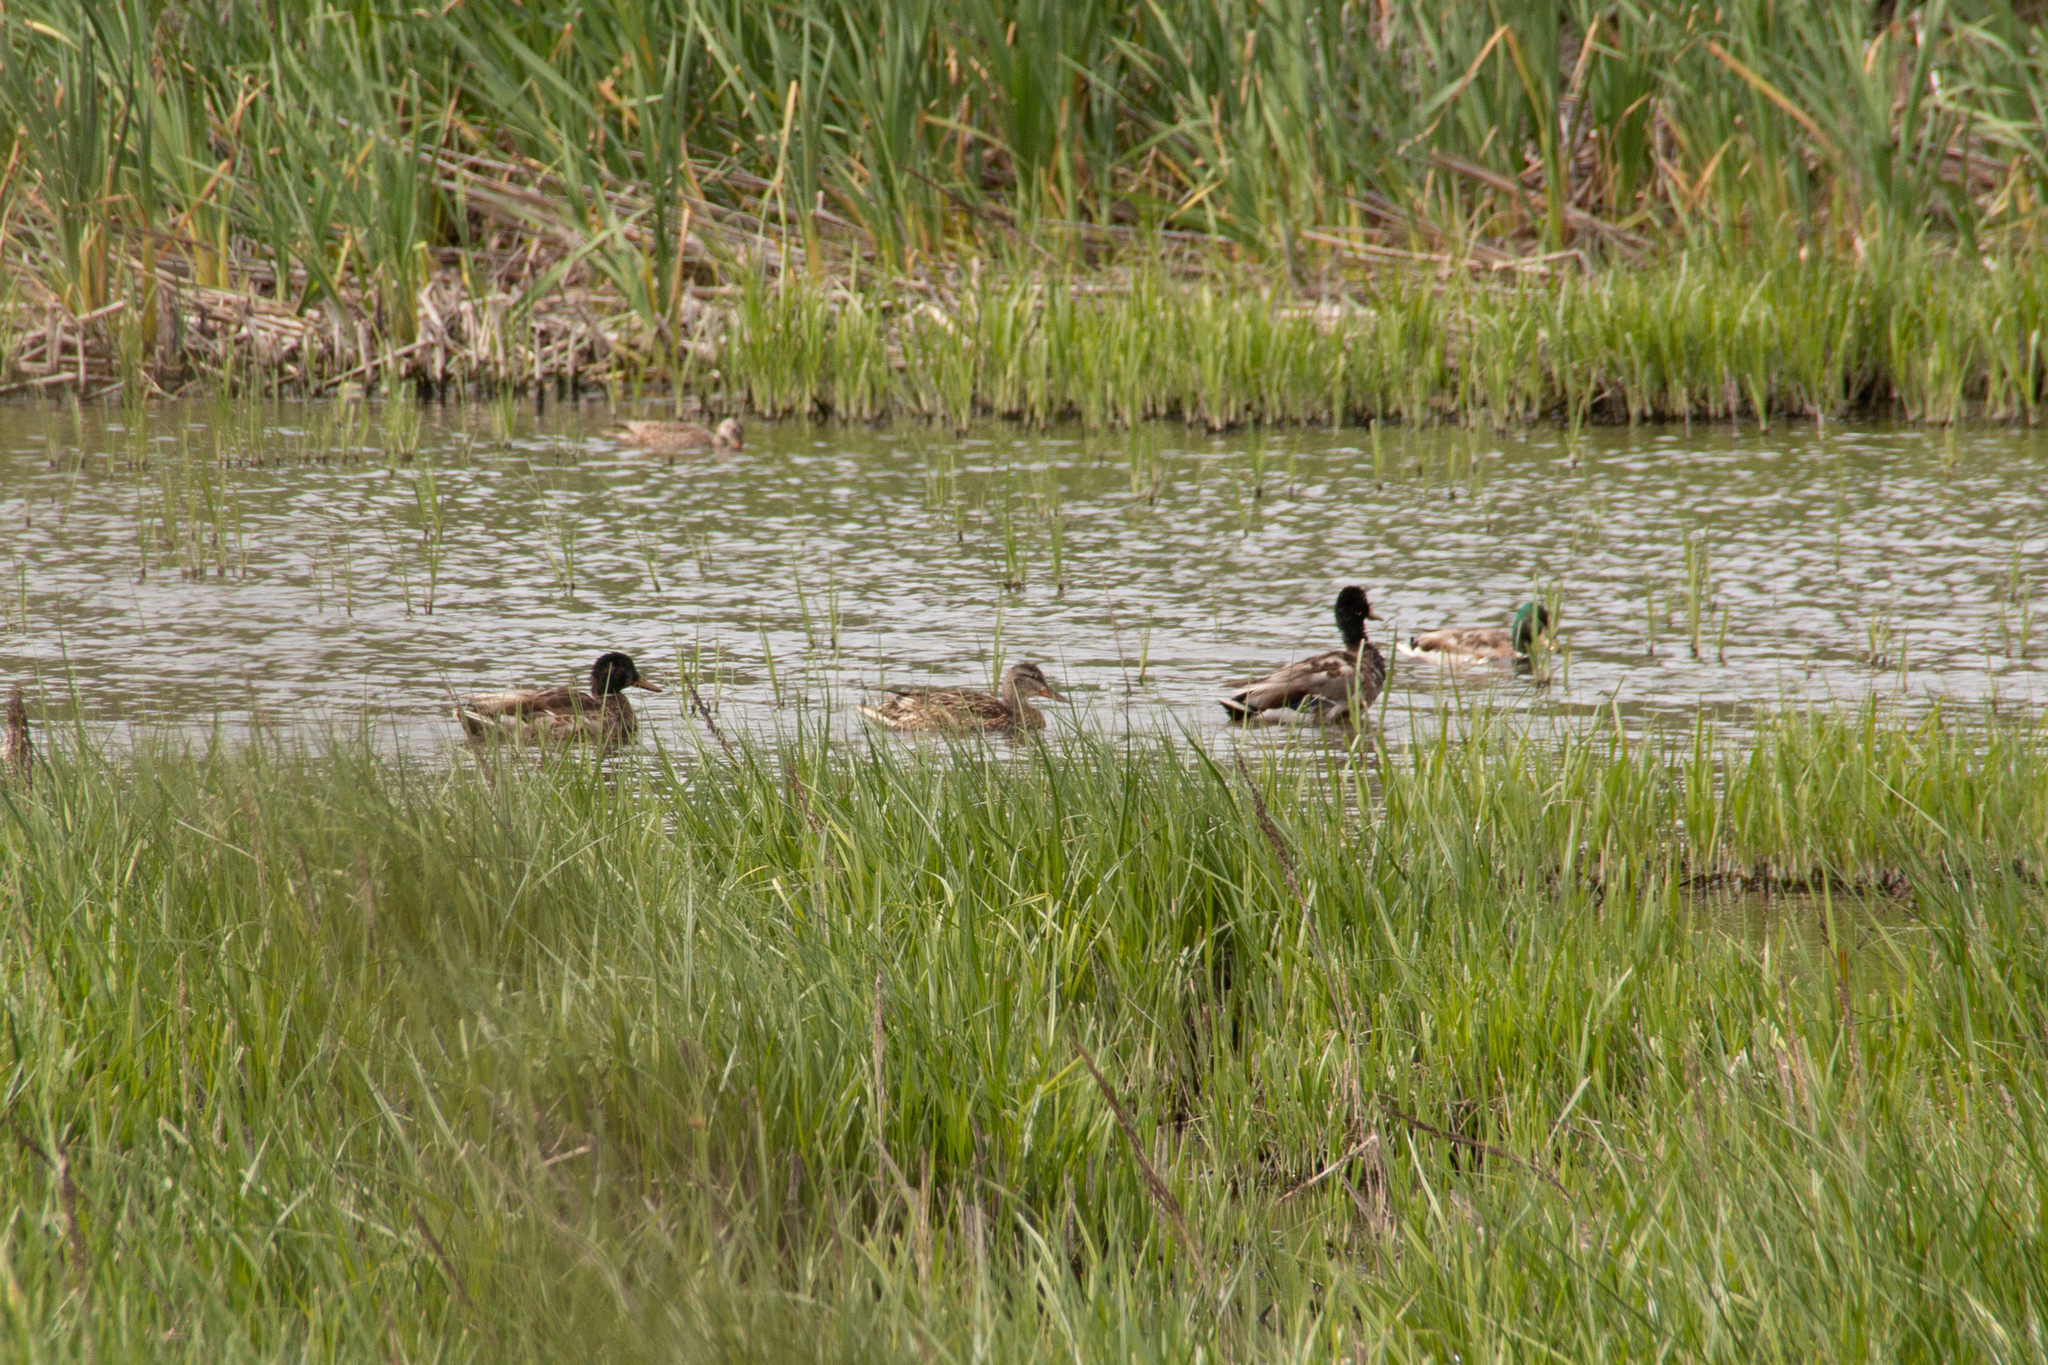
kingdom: Animalia
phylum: Chordata
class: Aves
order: Anseriformes
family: Anatidae
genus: Anas
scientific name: Anas platyrhynchos
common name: Mallard
